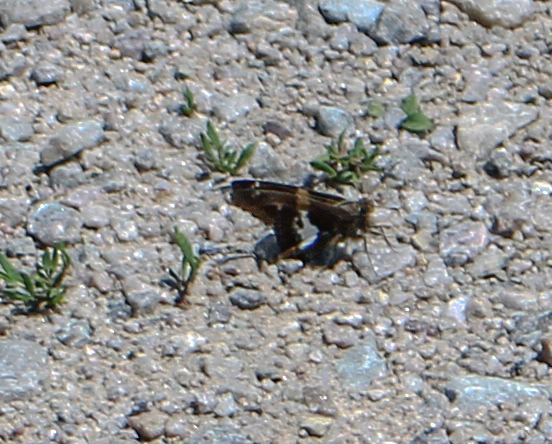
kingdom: Animalia
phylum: Arthropoda
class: Insecta
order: Lepidoptera
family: Hesperiidae
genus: Epargyreus
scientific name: Epargyreus clarus
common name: Silver-spotted skipper
